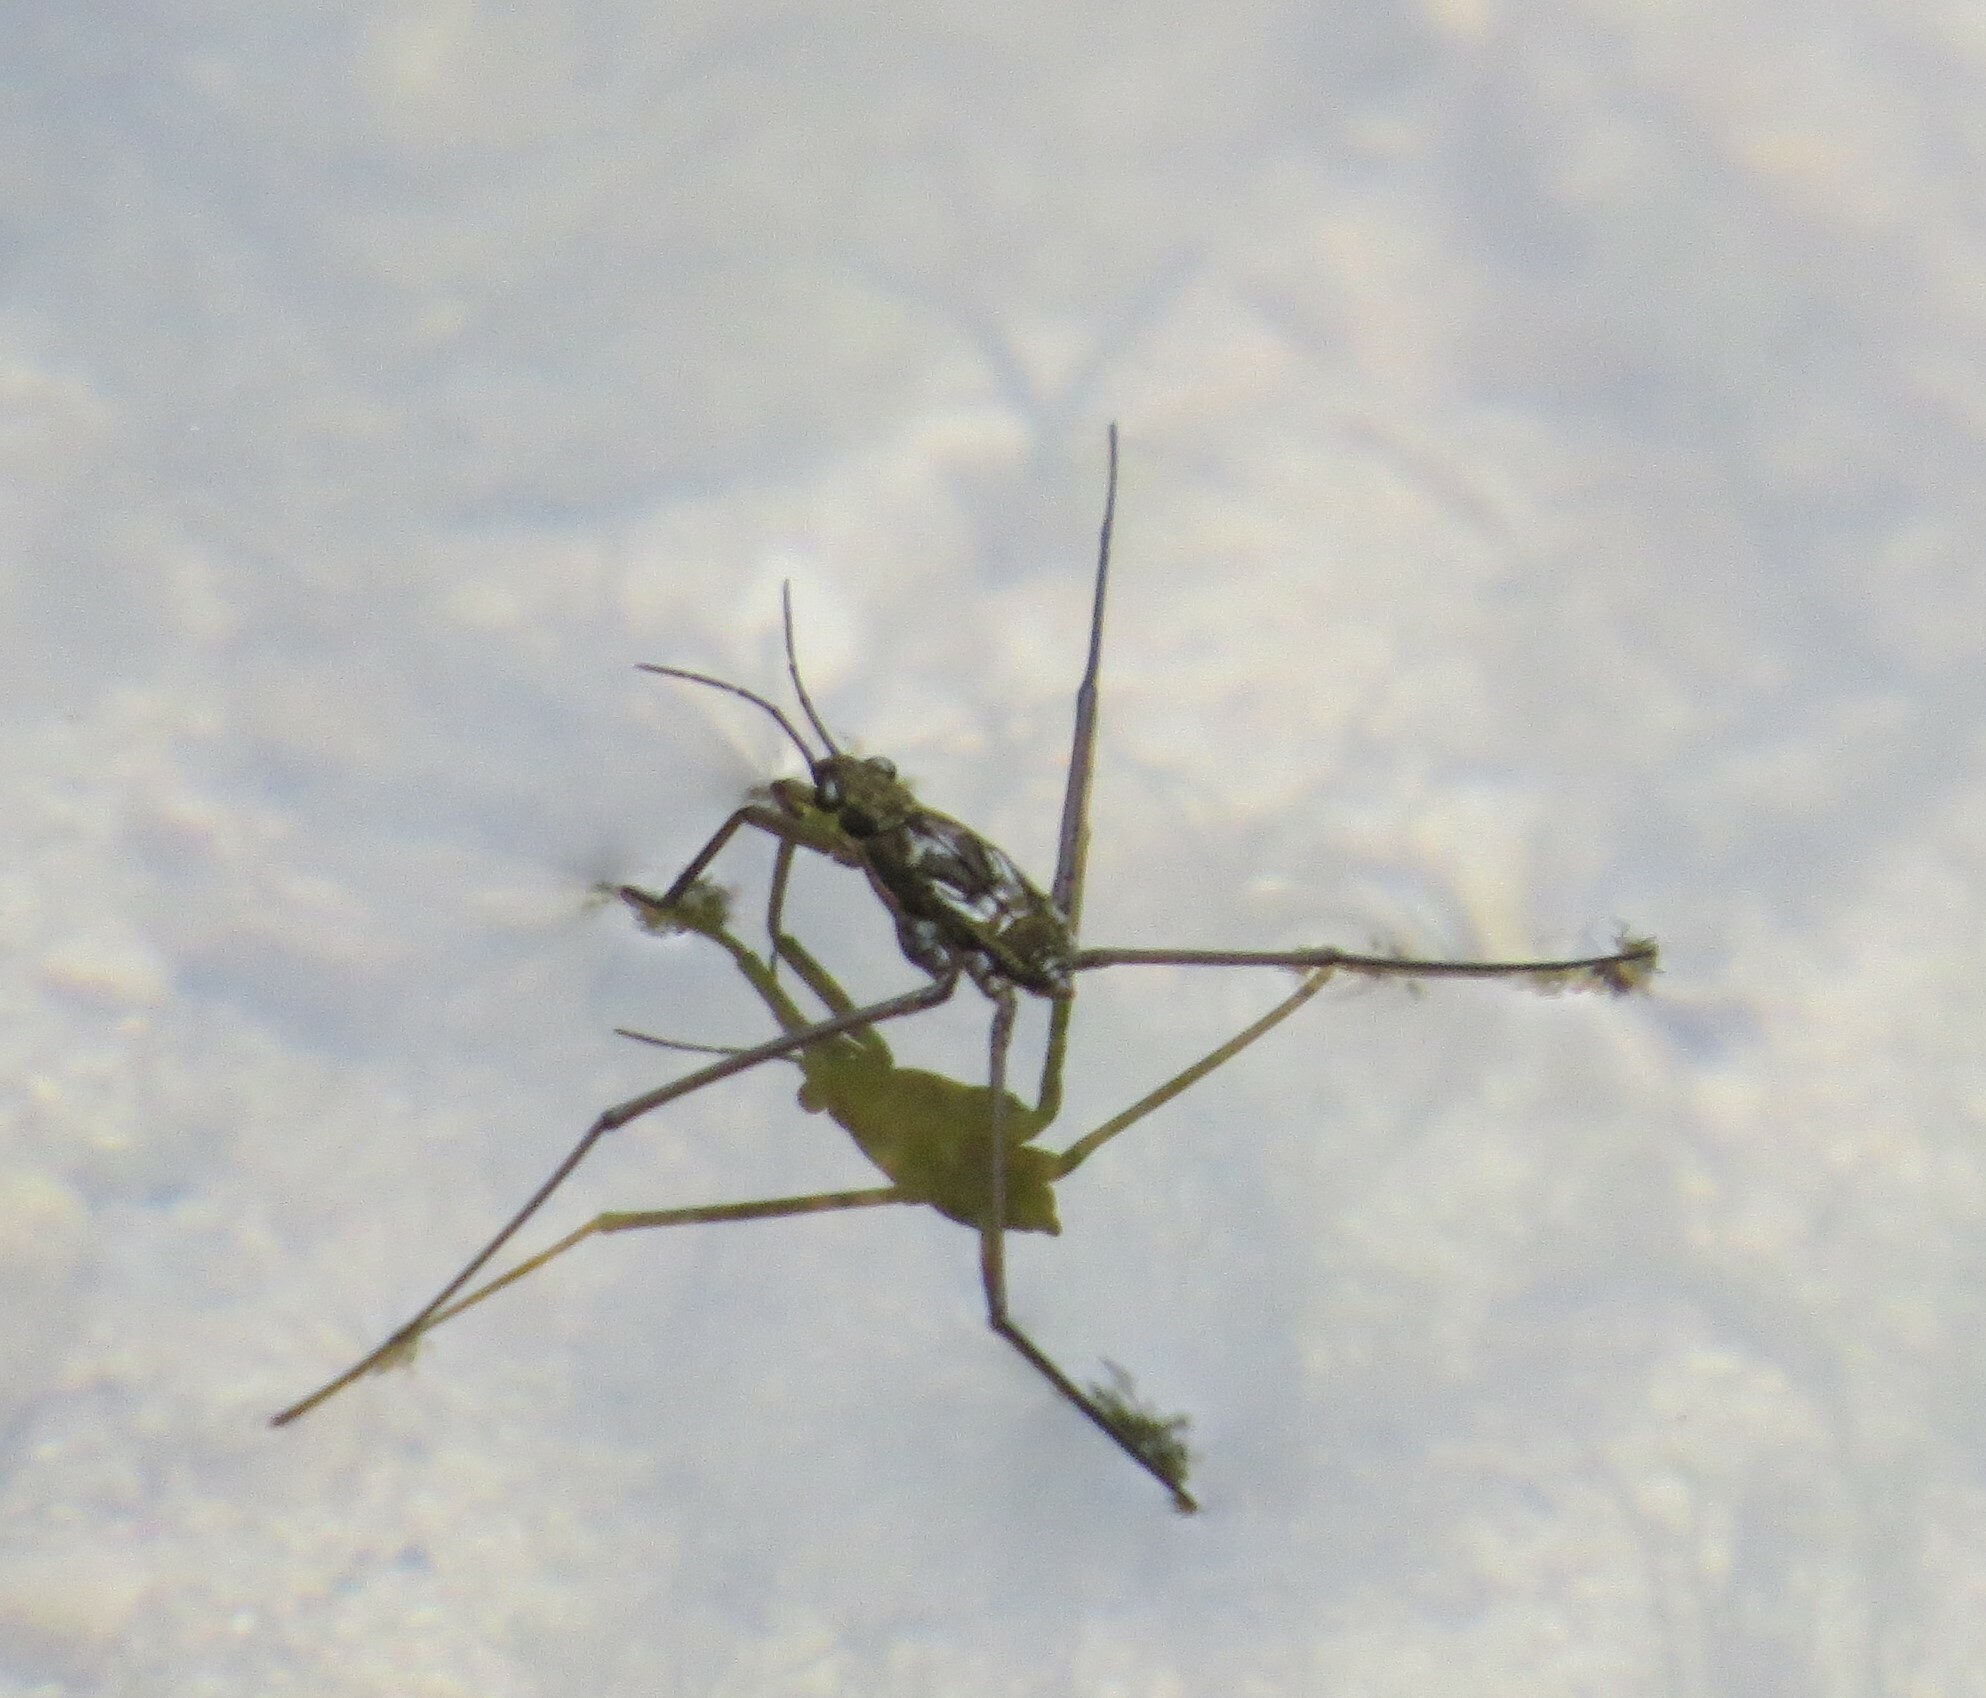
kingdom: Animalia
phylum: Arthropoda
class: Insecta
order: Hemiptera
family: Gerridae
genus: Aquarius
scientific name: Aquarius remigis
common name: Common water strider
